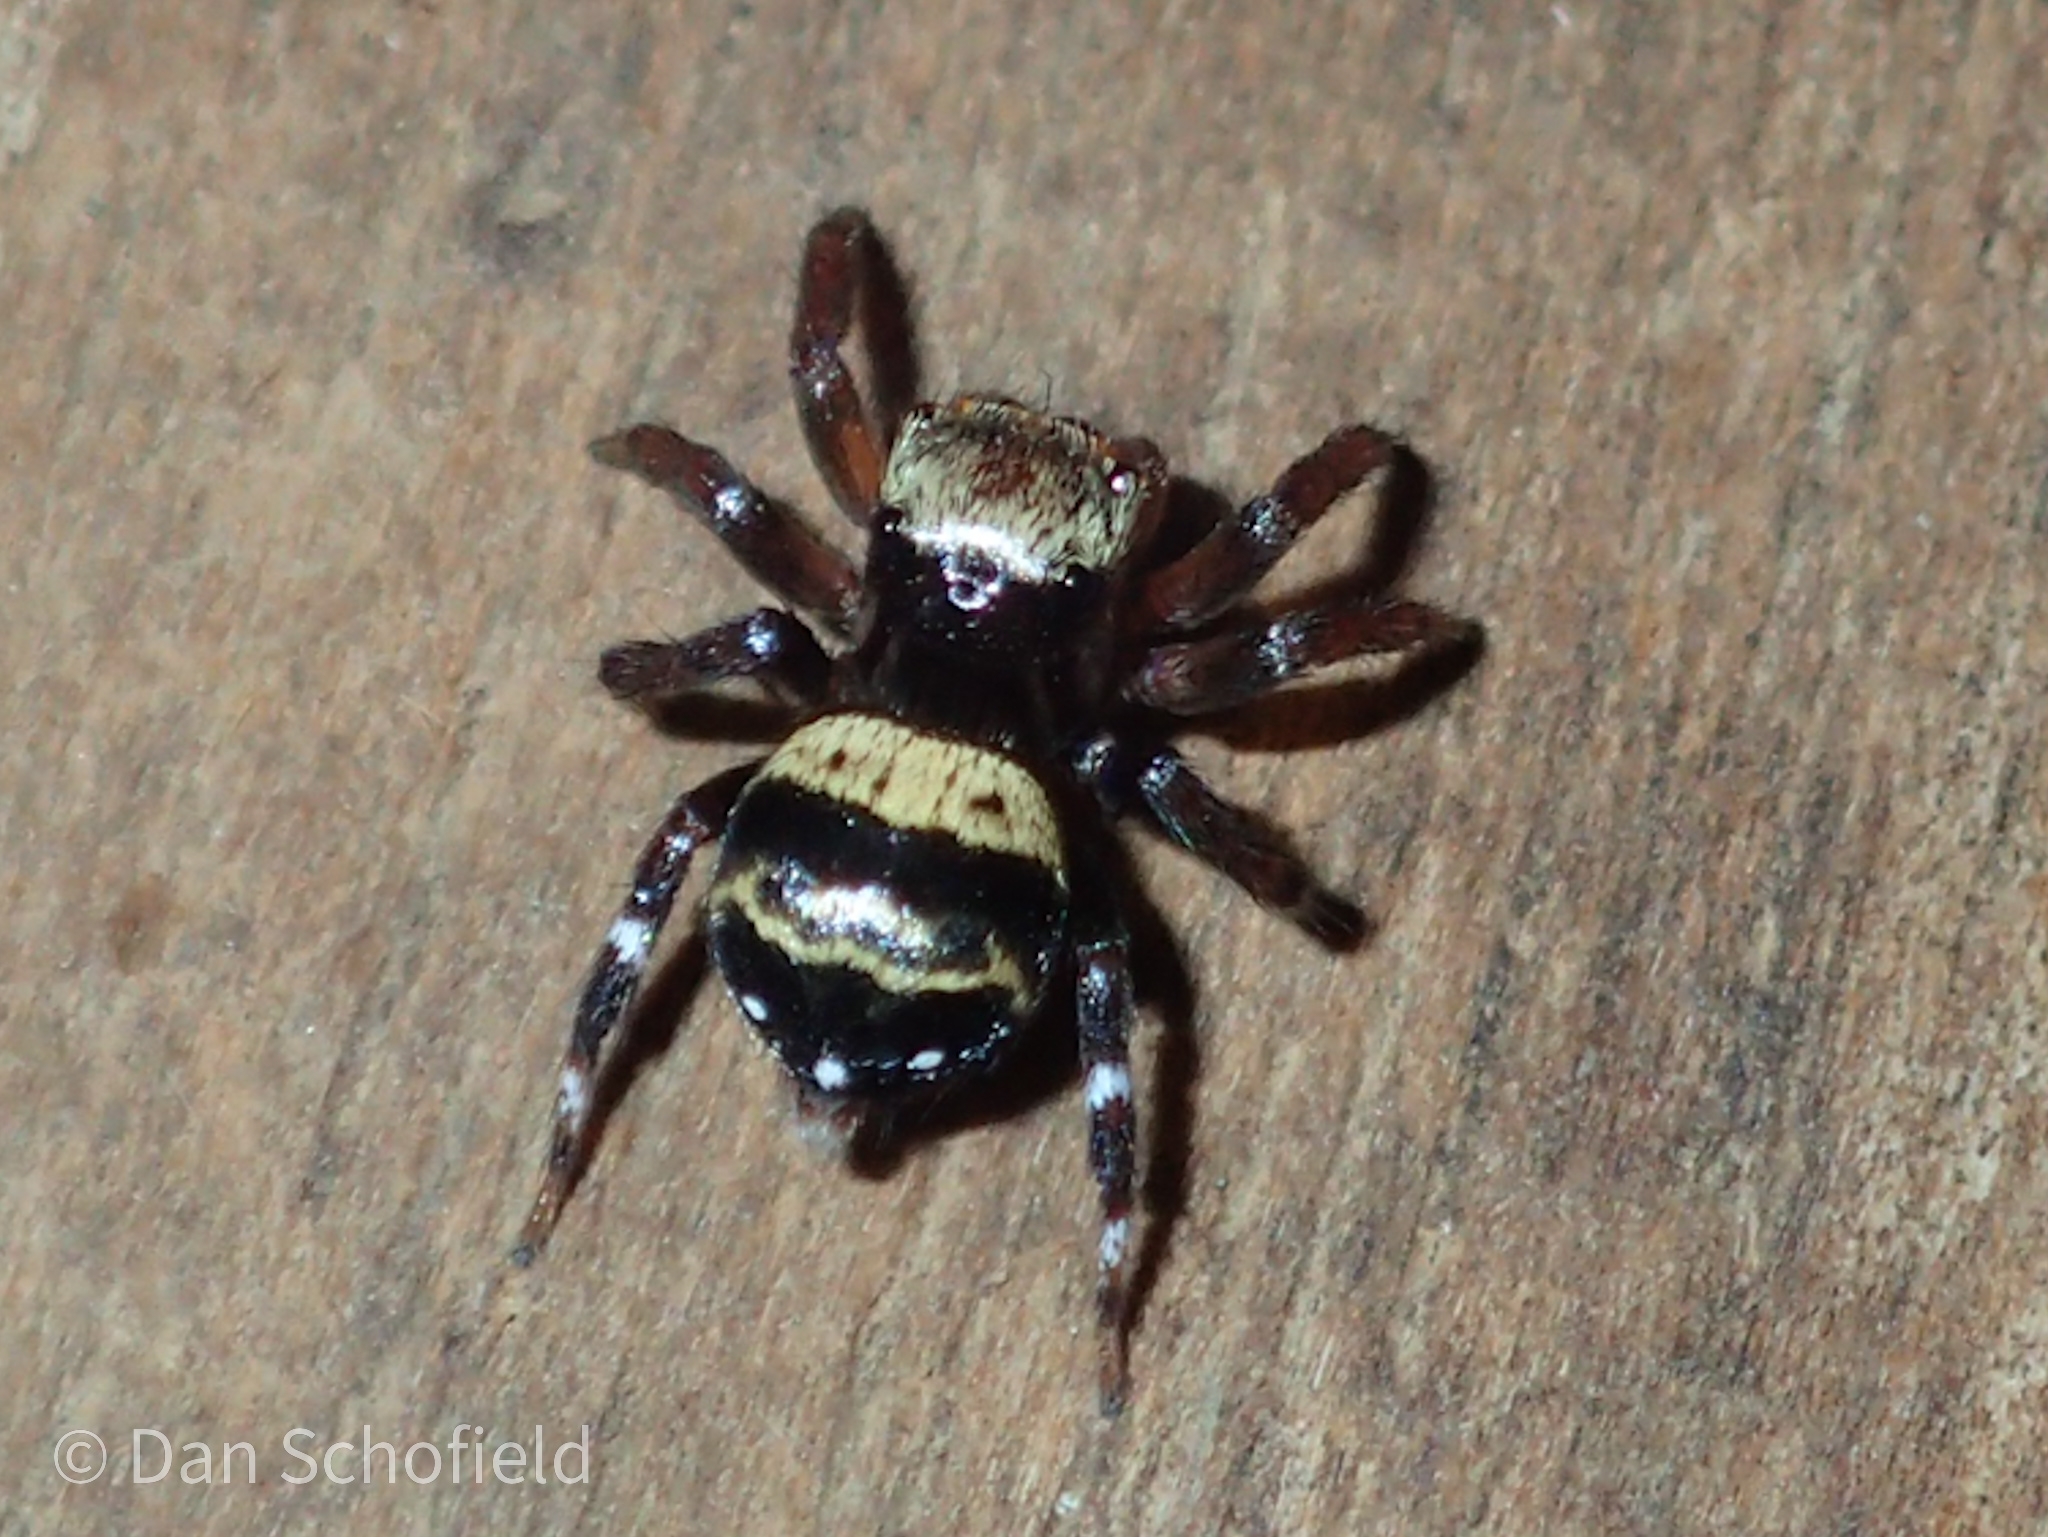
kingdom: Animalia
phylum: Arthropoda
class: Arachnida
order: Araneae
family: Salticidae
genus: Thorelliola
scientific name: Thorelliola ensifera
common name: Jumping spider
